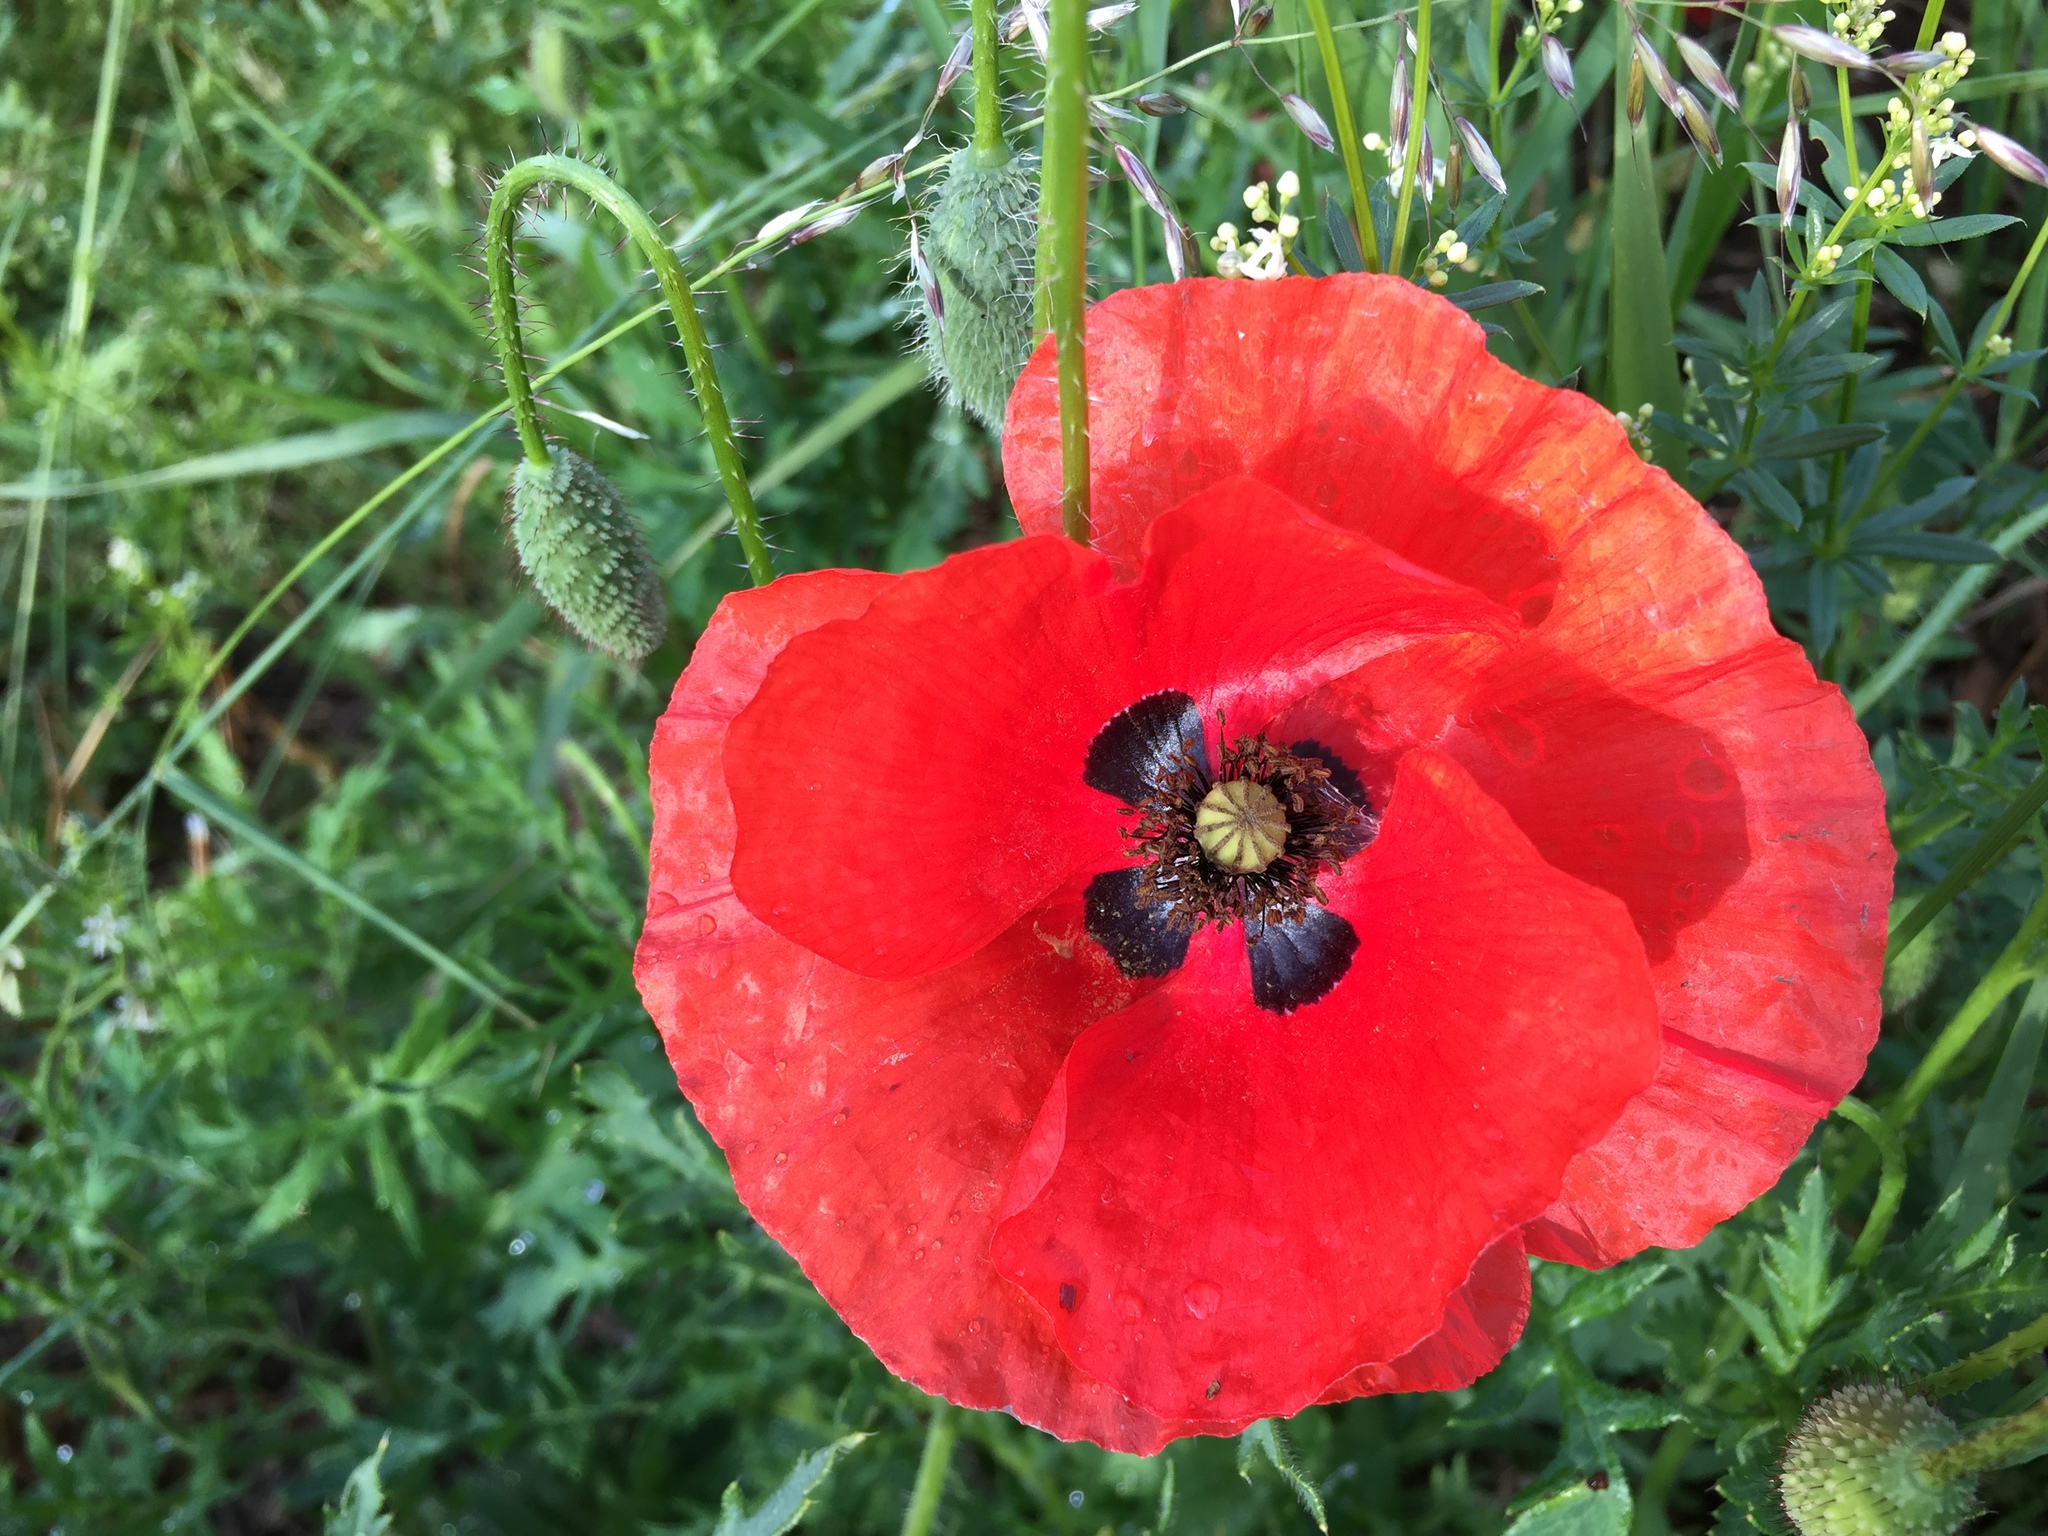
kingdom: Plantae
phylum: Tracheophyta
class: Magnoliopsida
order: Ranunculales
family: Papaveraceae
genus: Papaver
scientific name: Papaver rhoeas
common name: Corn poppy
